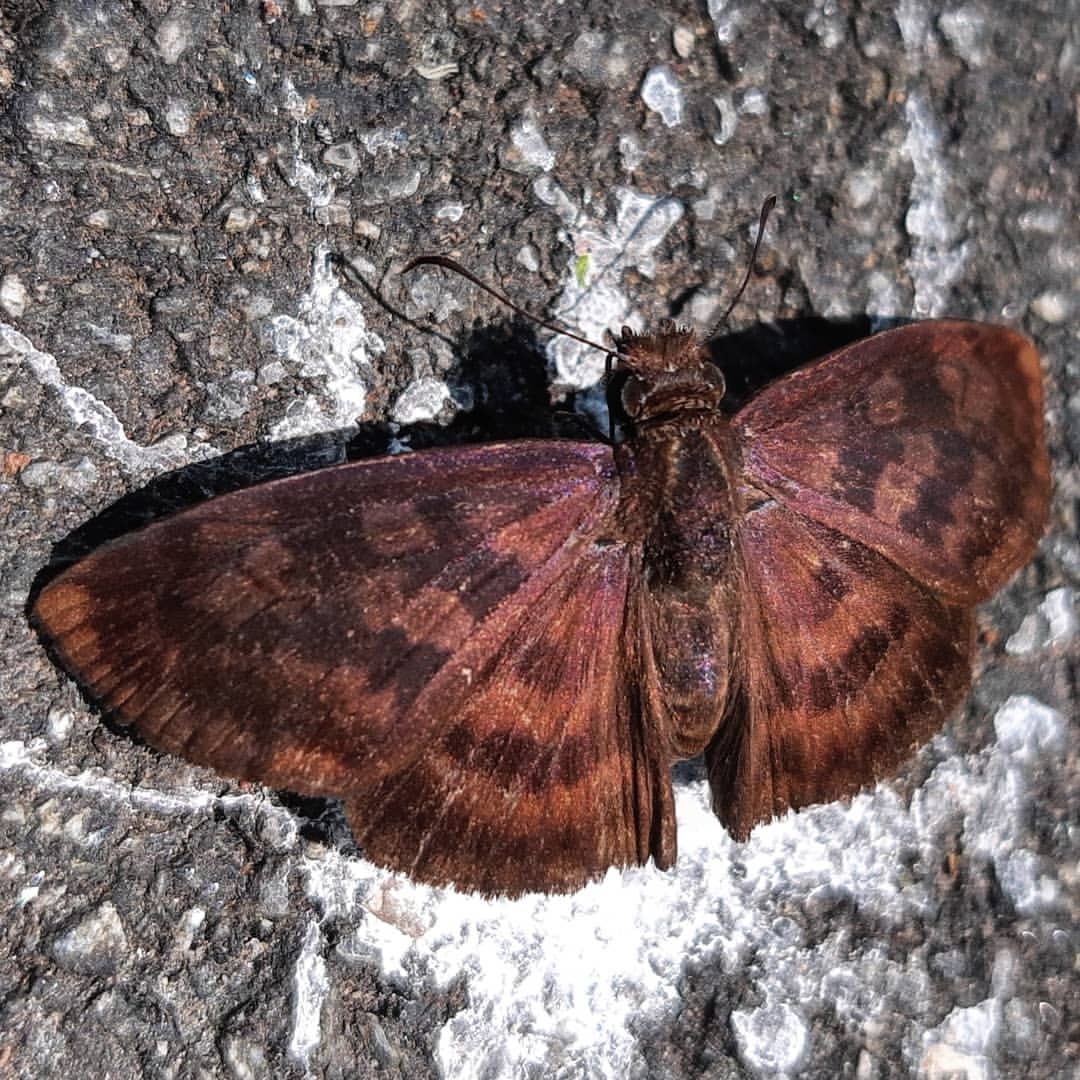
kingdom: Animalia
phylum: Arthropoda
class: Insecta
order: Lepidoptera
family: Hesperiidae
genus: Anastrus
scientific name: Anastrus Echelatus sempiternus
